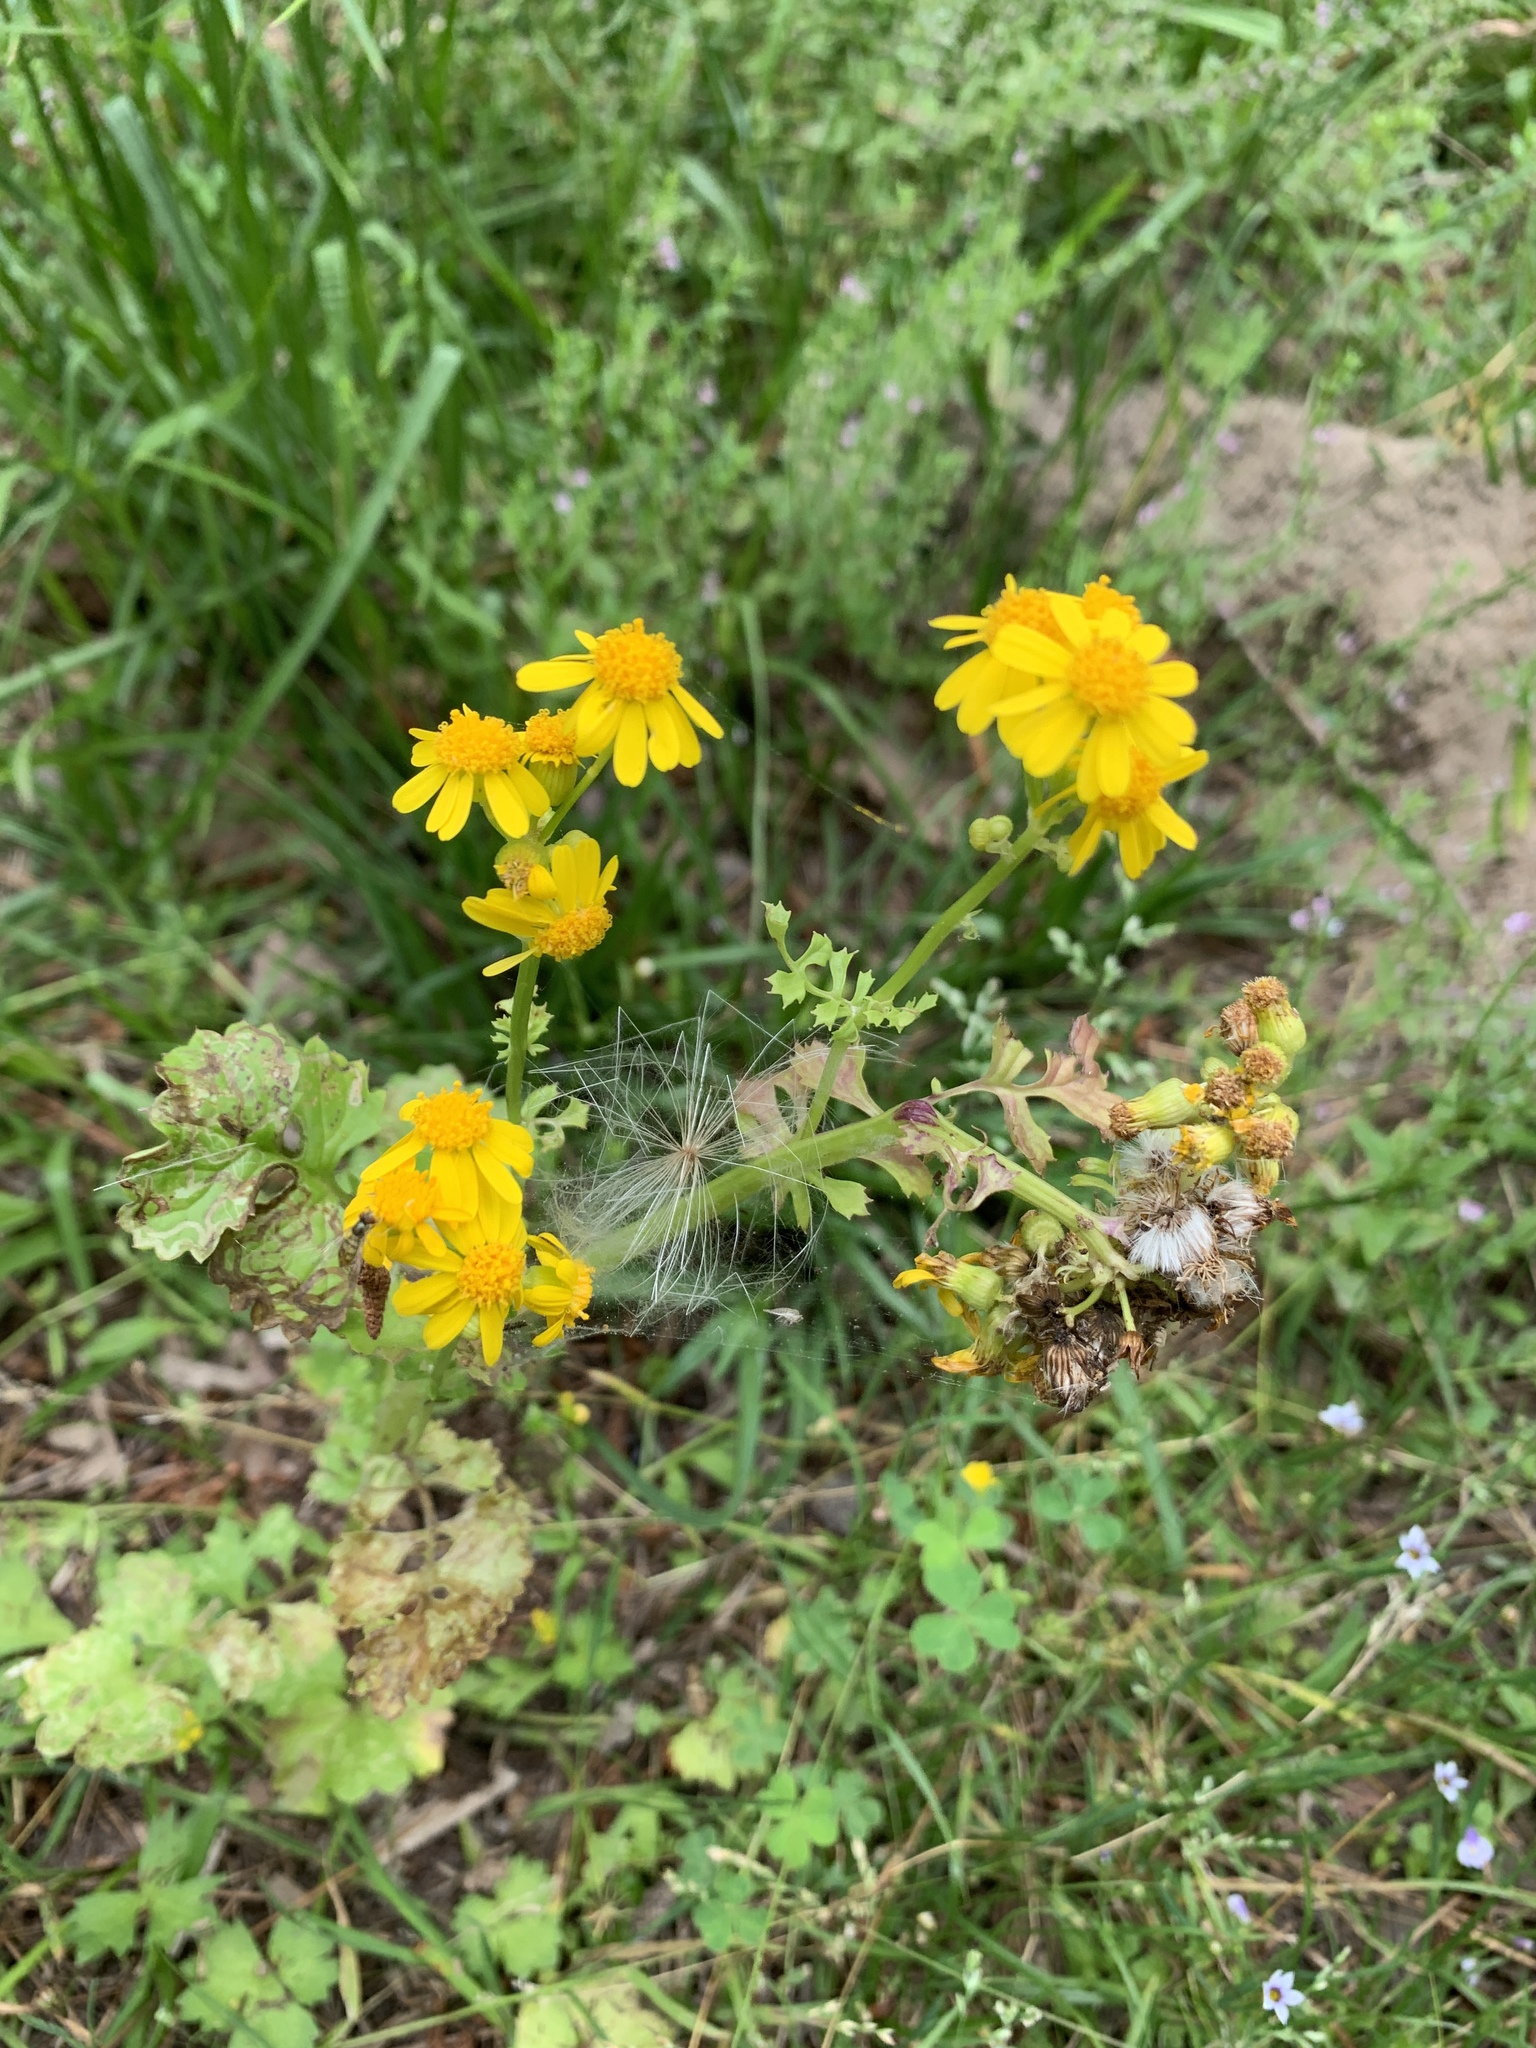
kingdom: Plantae
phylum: Tracheophyta
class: Magnoliopsida
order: Asterales
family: Asteraceae
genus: Packera
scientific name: Packera glabella
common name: Butterweed
